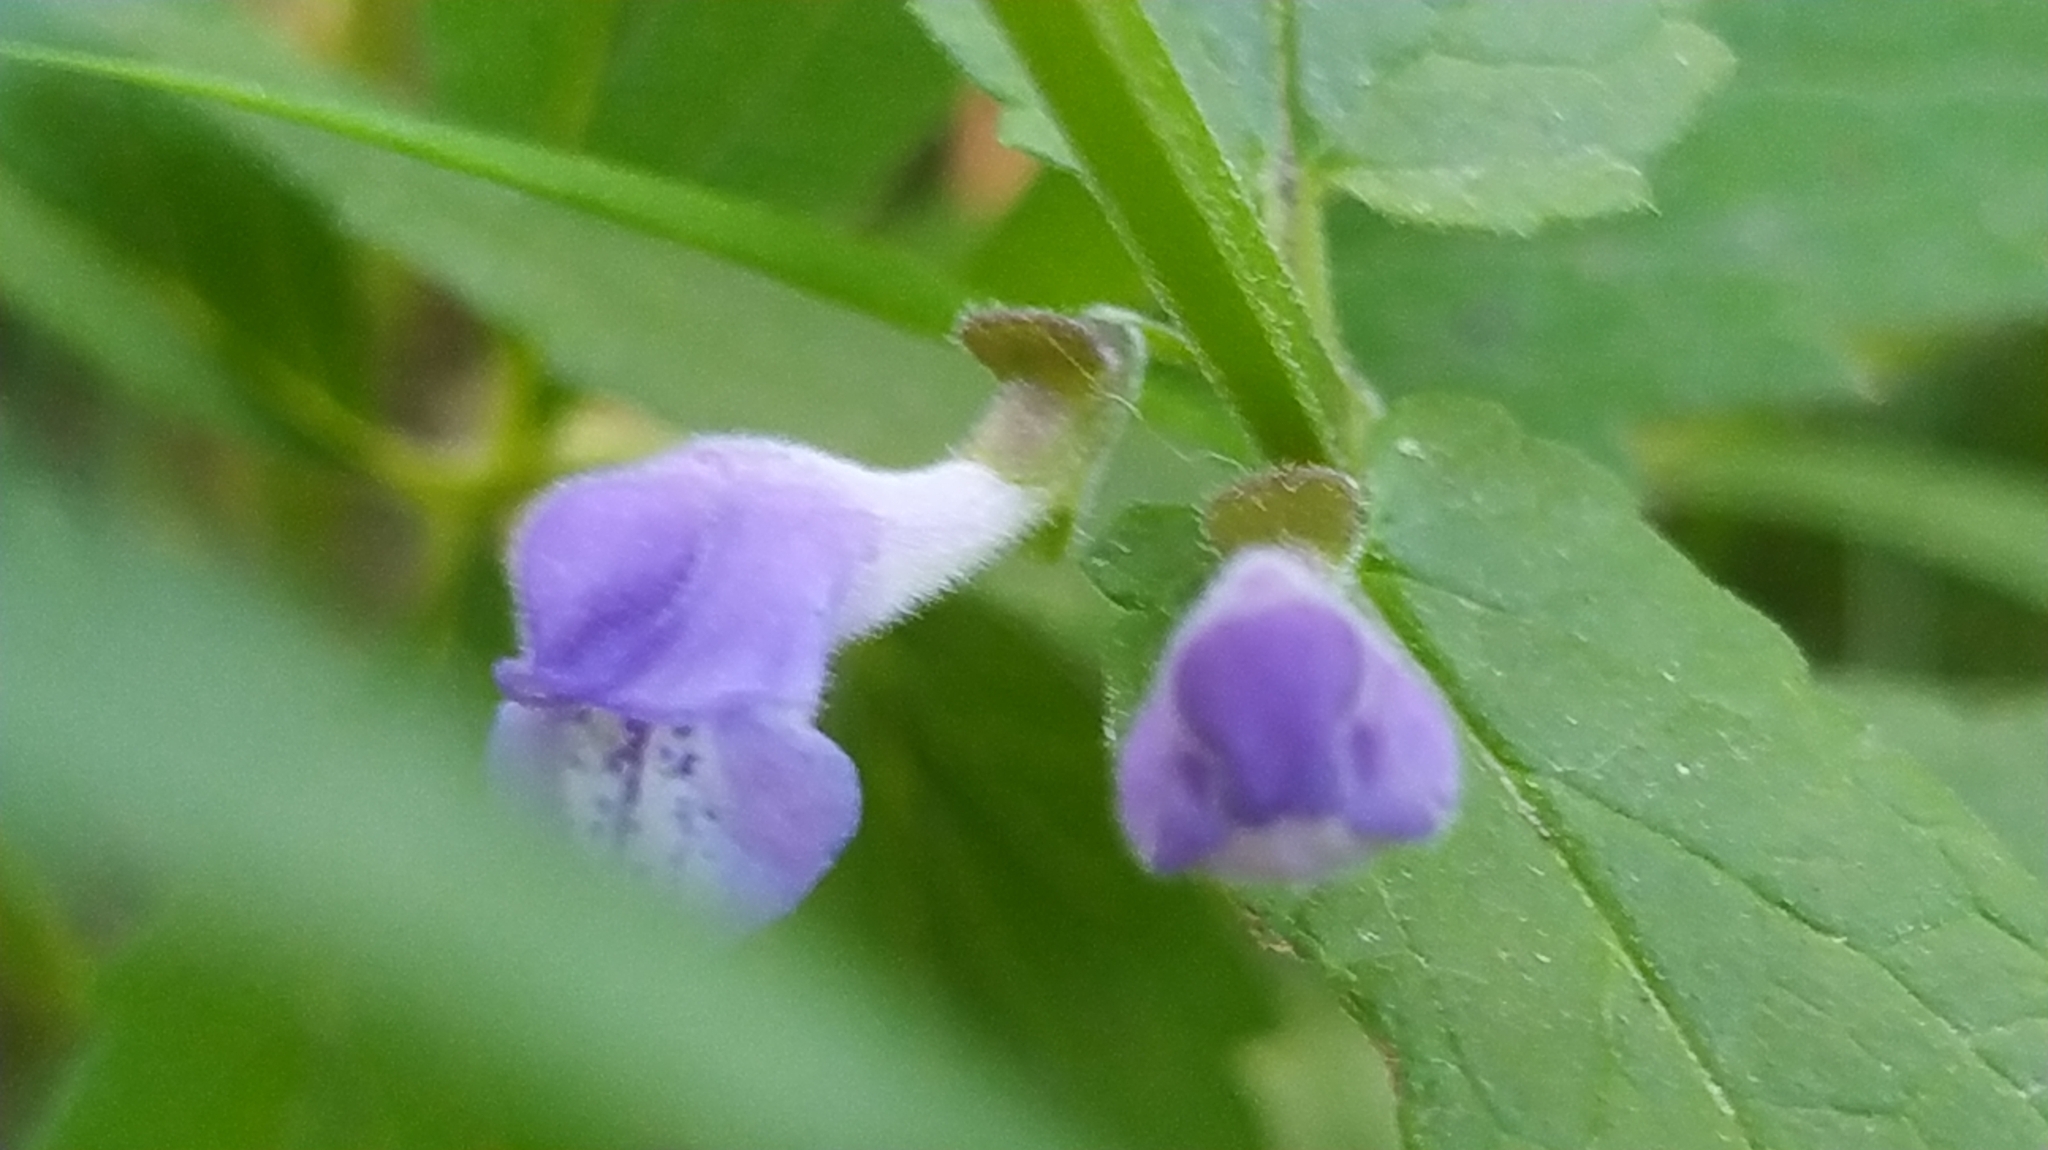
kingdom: Plantae
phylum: Tracheophyta
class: Magnoliopsida
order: Lamiales
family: Lamiaceae
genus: Scutellaria
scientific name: Scutellaria galericulata
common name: Skullcap
